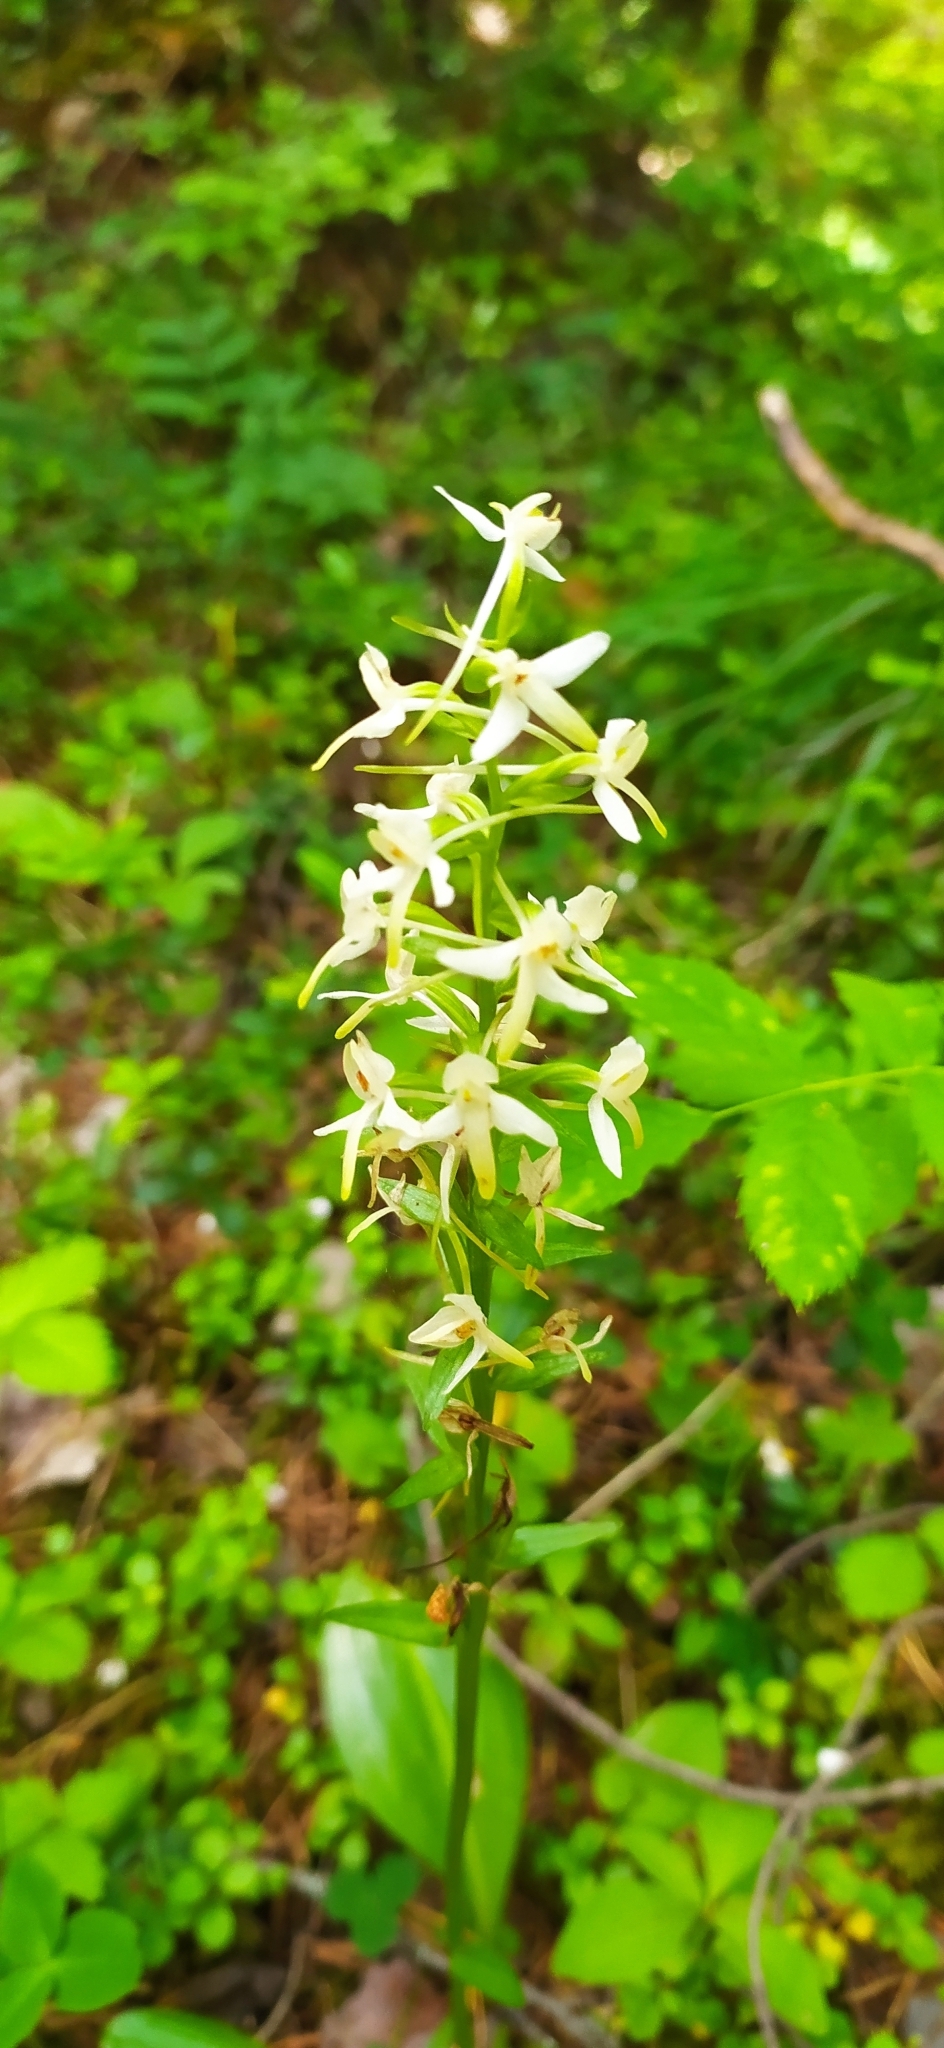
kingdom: Plantae
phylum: Tracheophyta
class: Liliopsida
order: Asparagales
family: Orchidaceae
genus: Platanthera
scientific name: Platanthera bifolia
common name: Lesser butterfly-orchid
